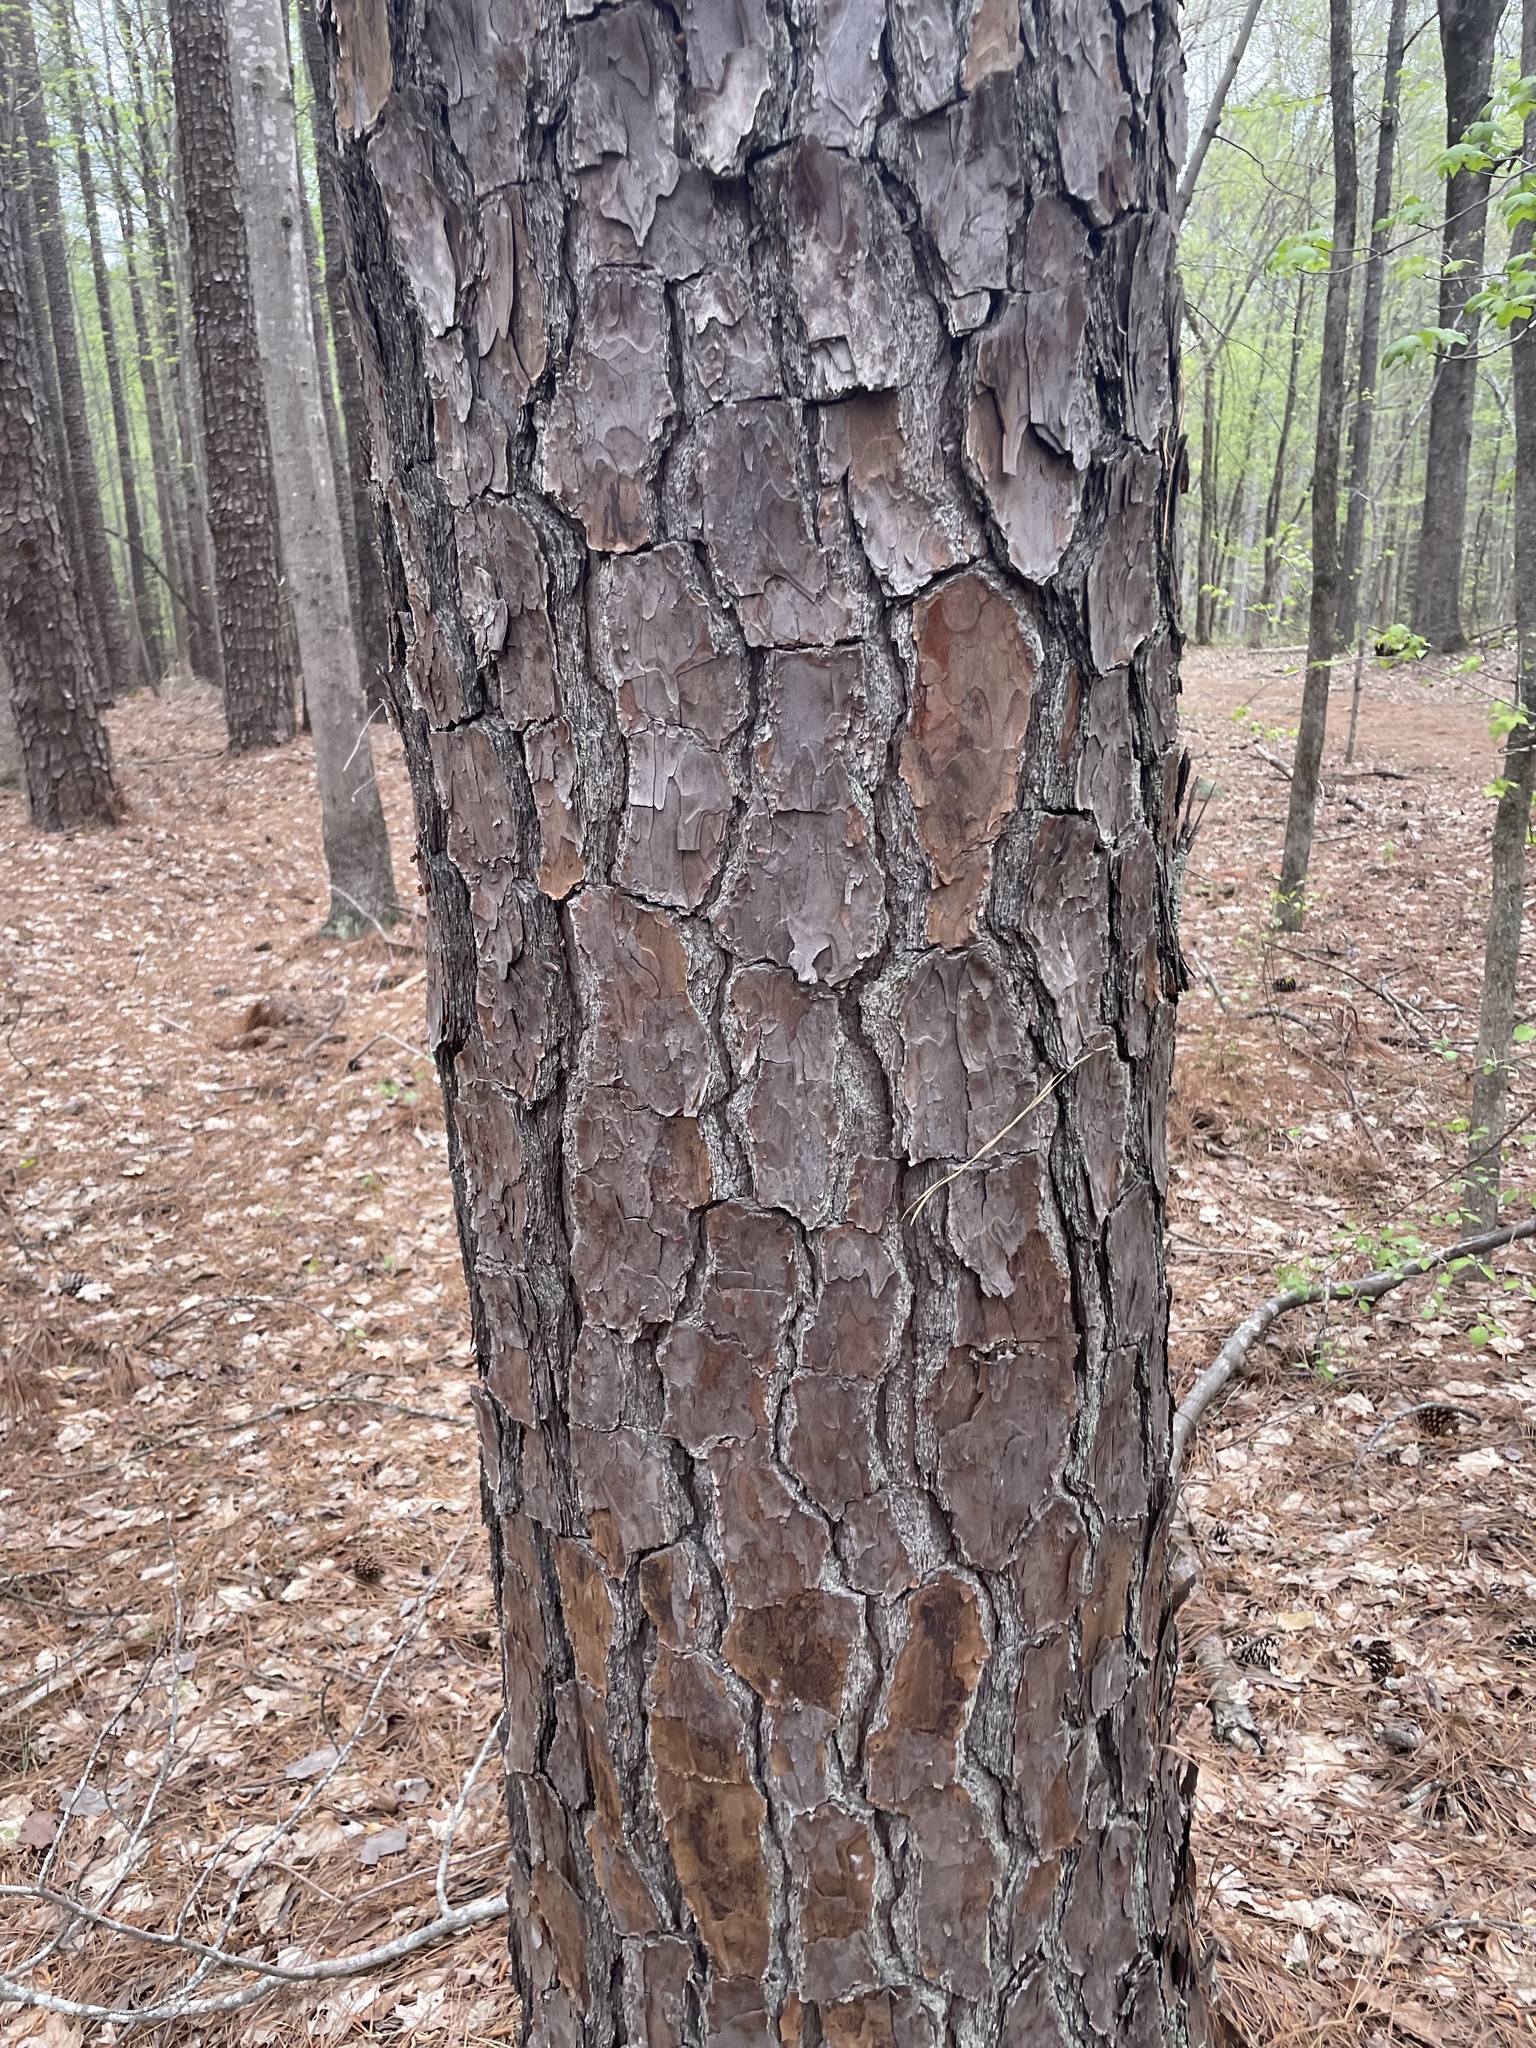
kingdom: Plantae
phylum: Tracheophyta
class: Pinopsida
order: Pinales
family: Pinaceae
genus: Pinus
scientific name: Pinus taeda
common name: Loblolly pine
